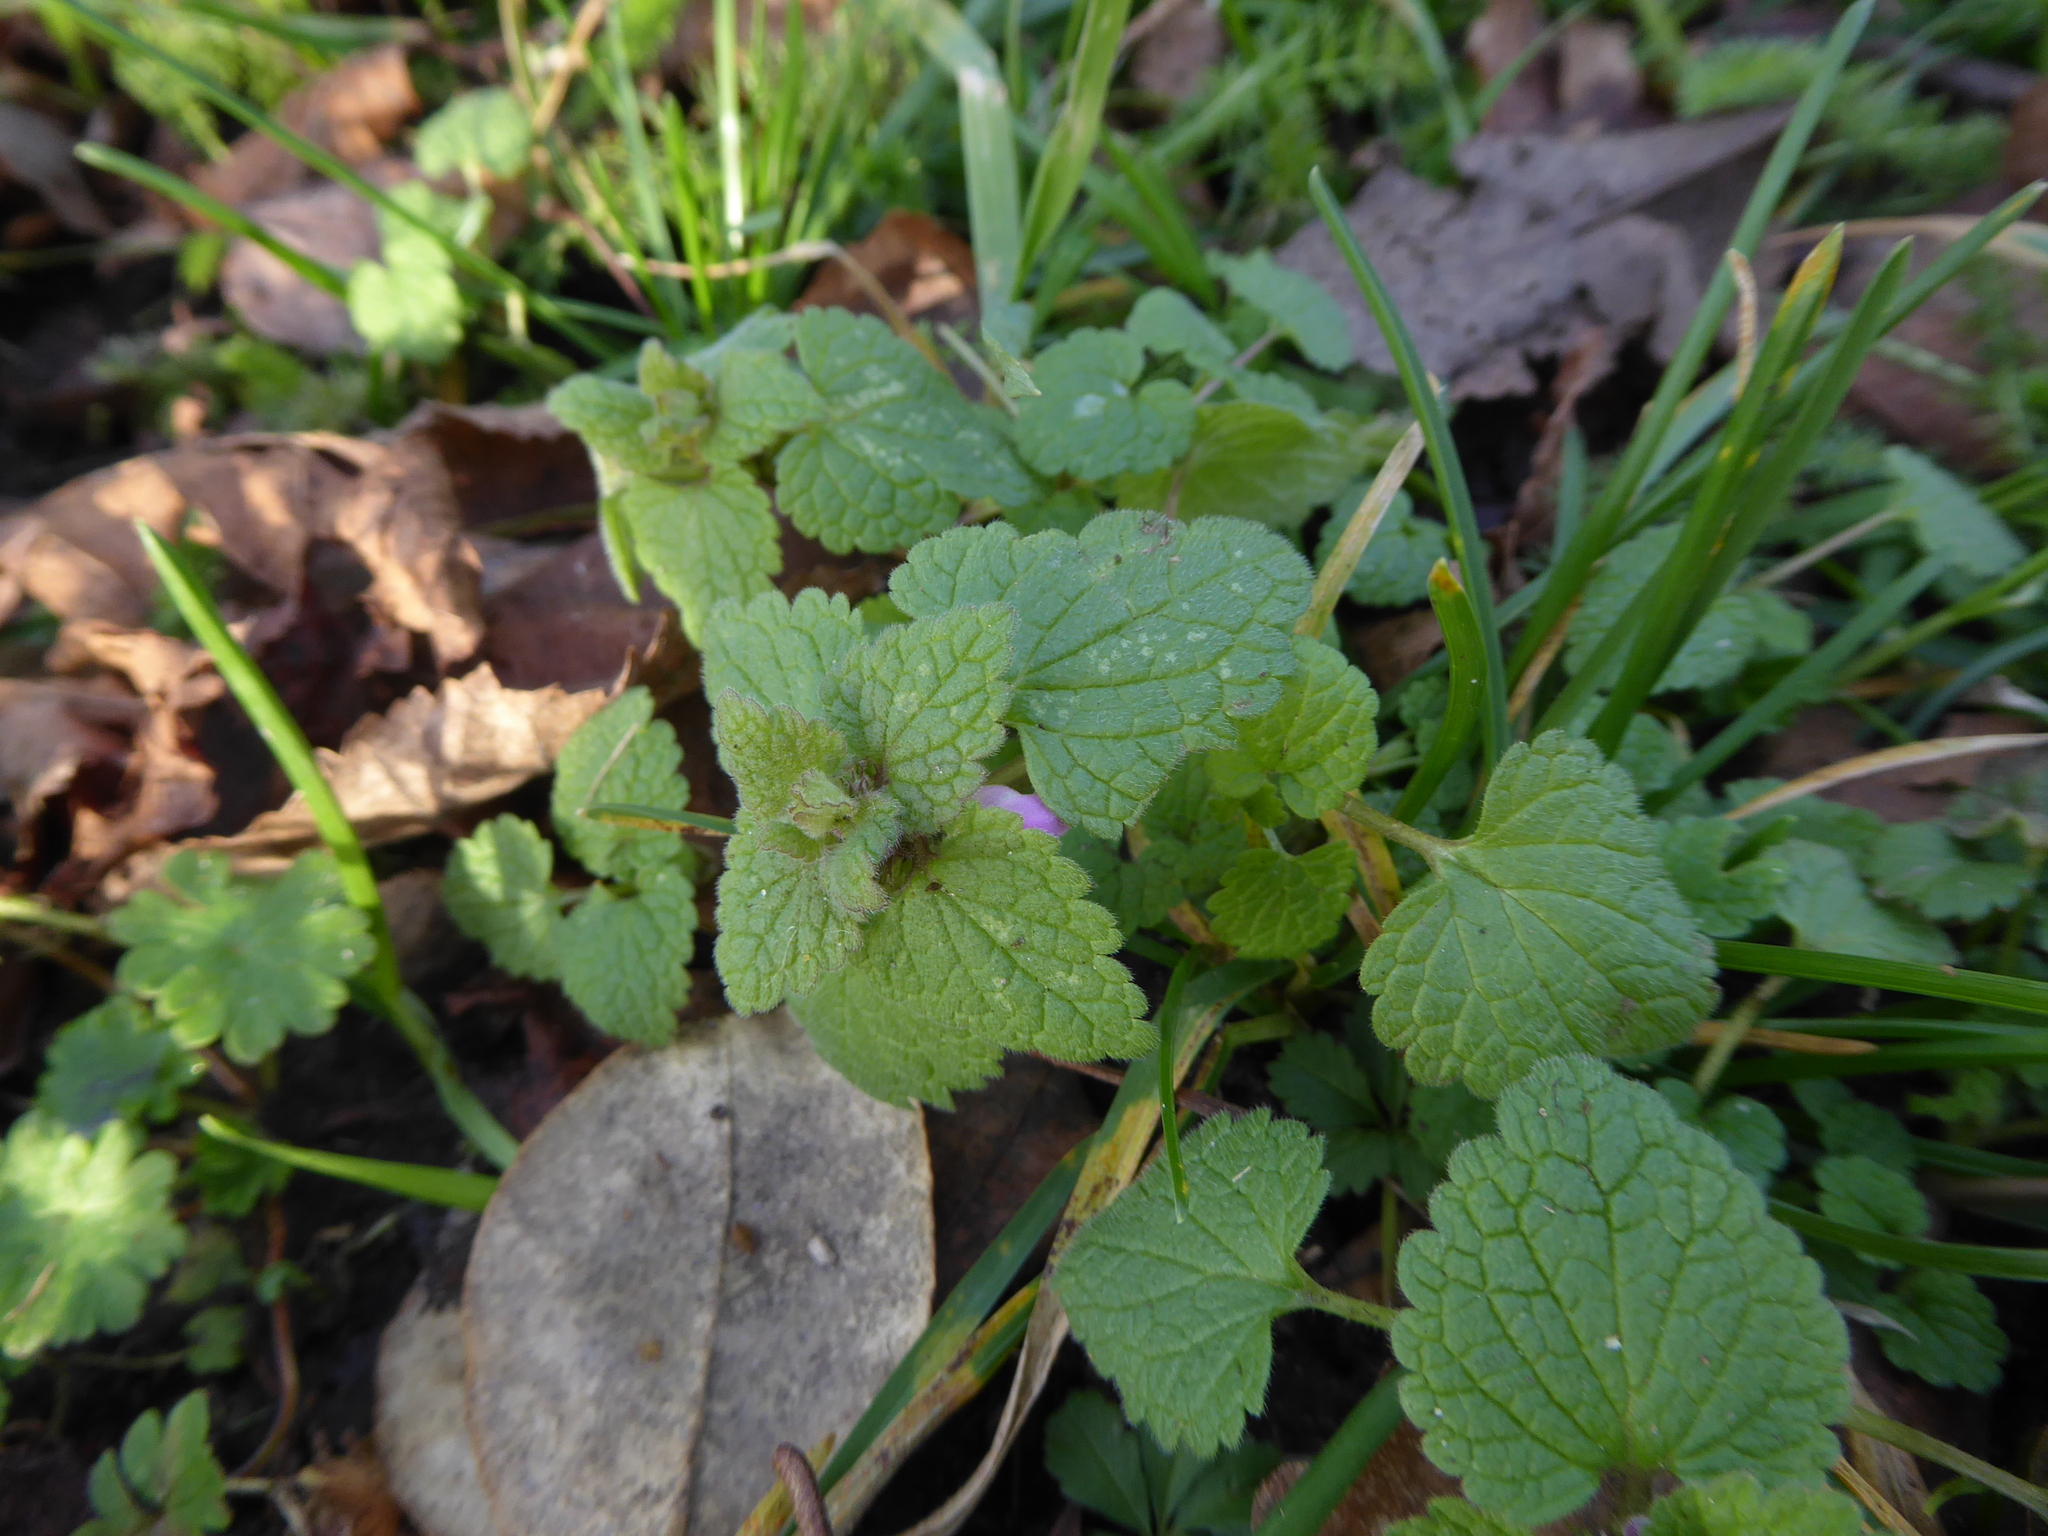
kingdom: Plantae
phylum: Tracheophyta
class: Magnoliopsida
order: Lamiales
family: Lamiaceae
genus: Lamium
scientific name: Lamium purpureum
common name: Red dead-nettle
